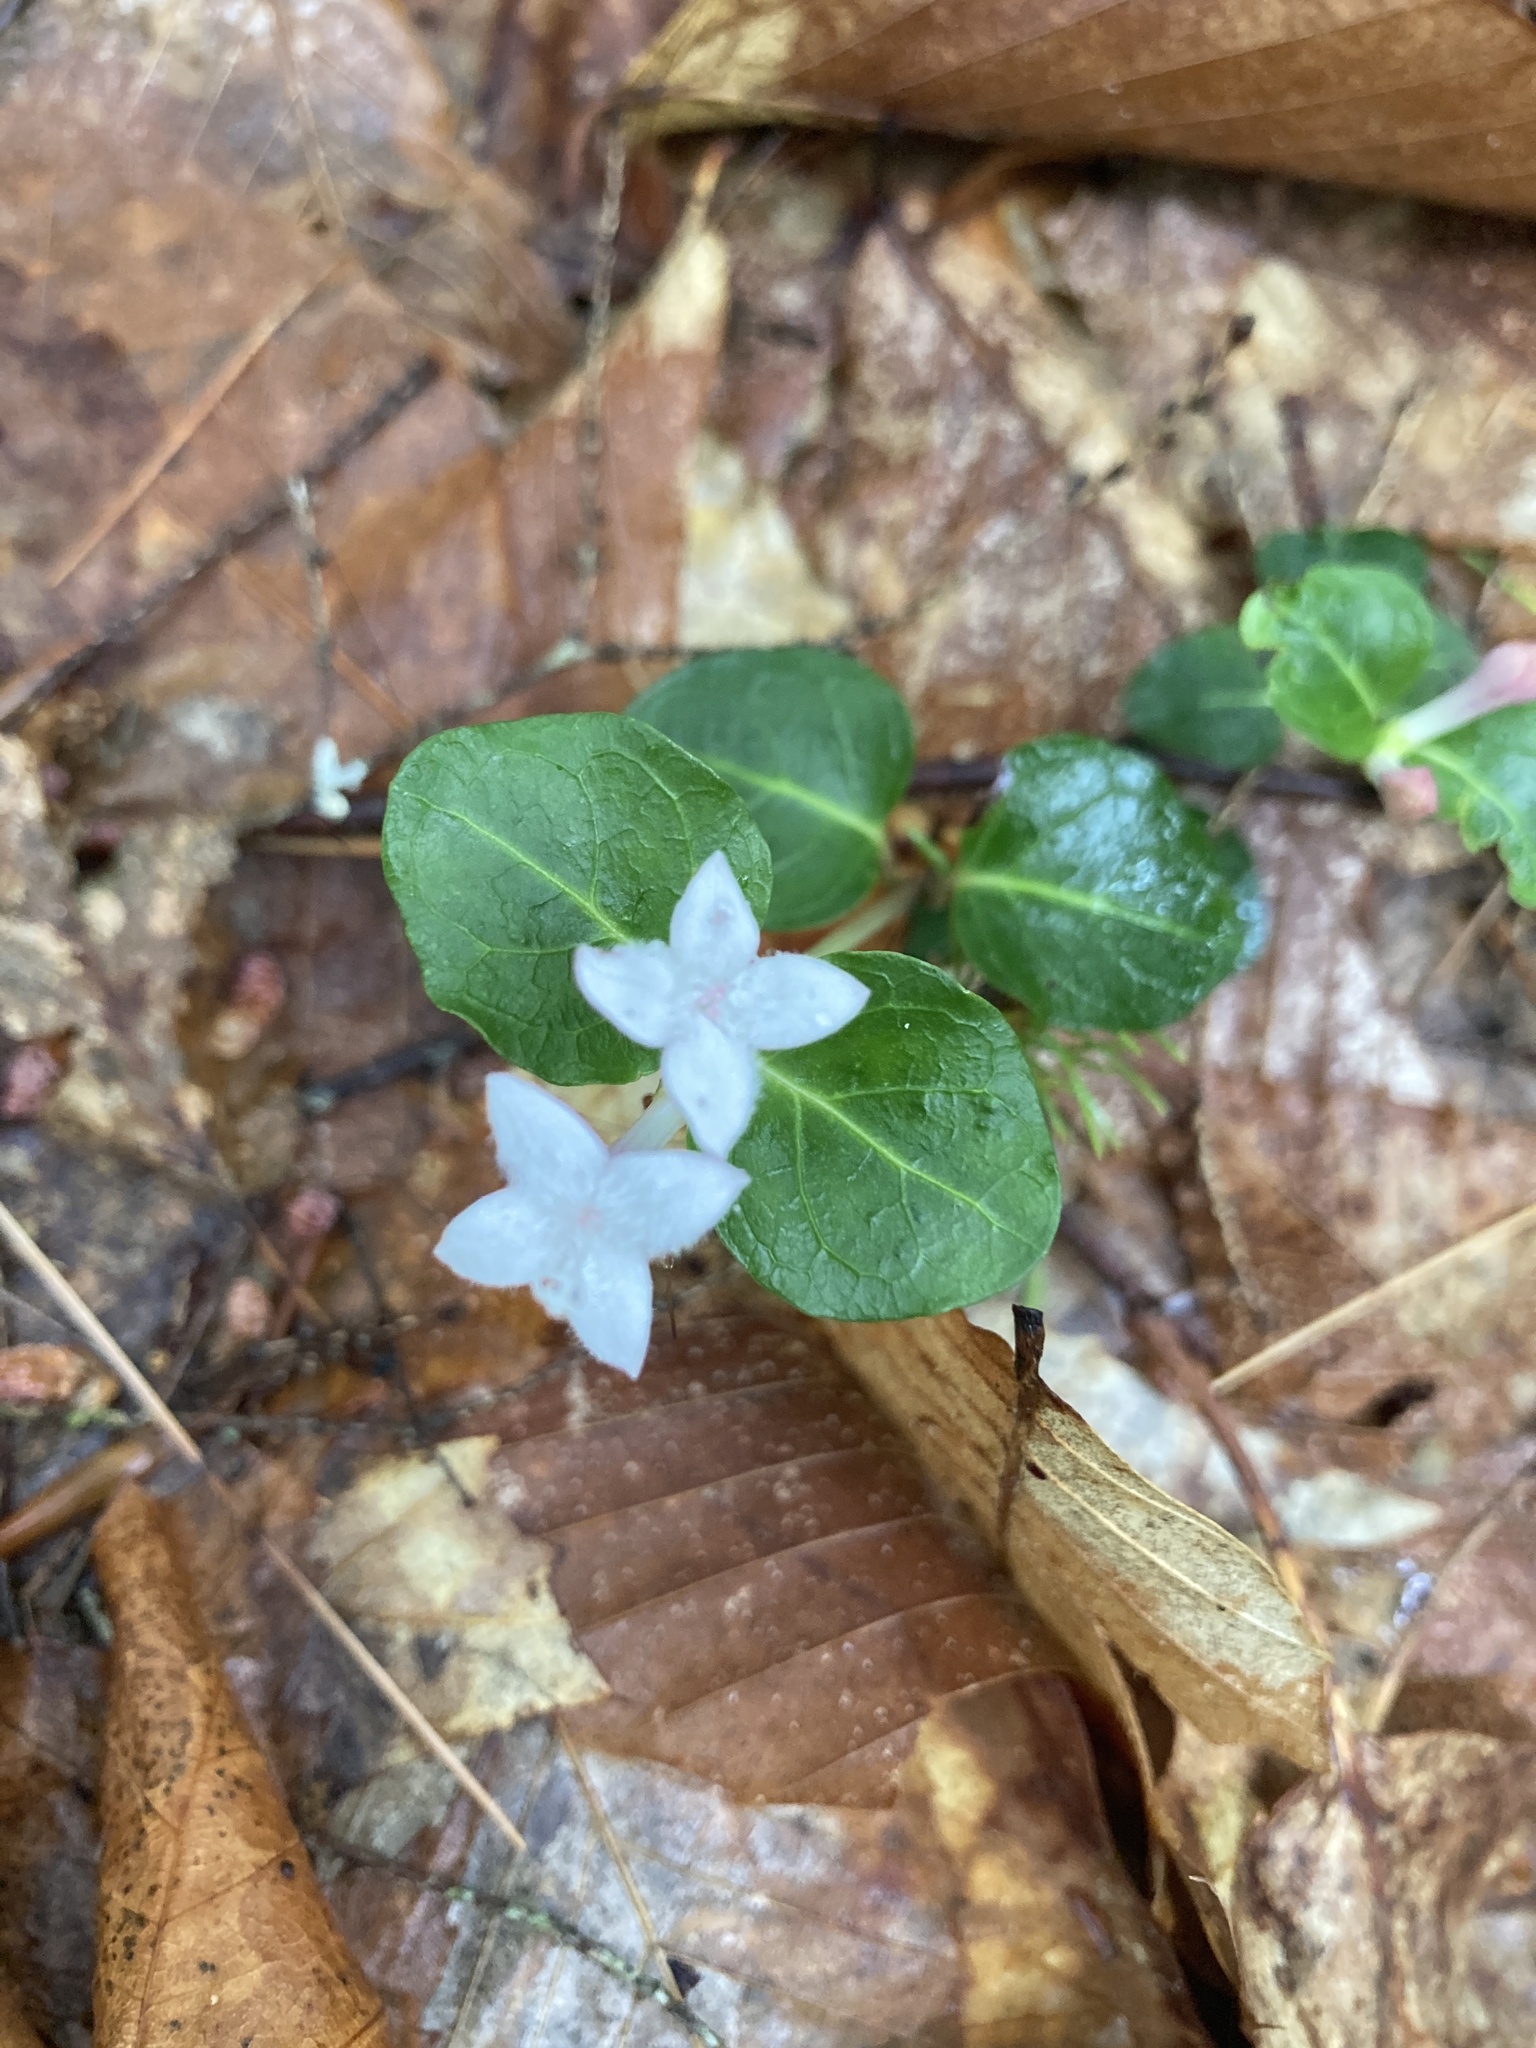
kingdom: Plantae
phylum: Tracheophyta
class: Magnoliopsida
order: Gentianales
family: Rubiaceae
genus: Mitchella
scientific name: Mitchella repens
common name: Partridge-berry
